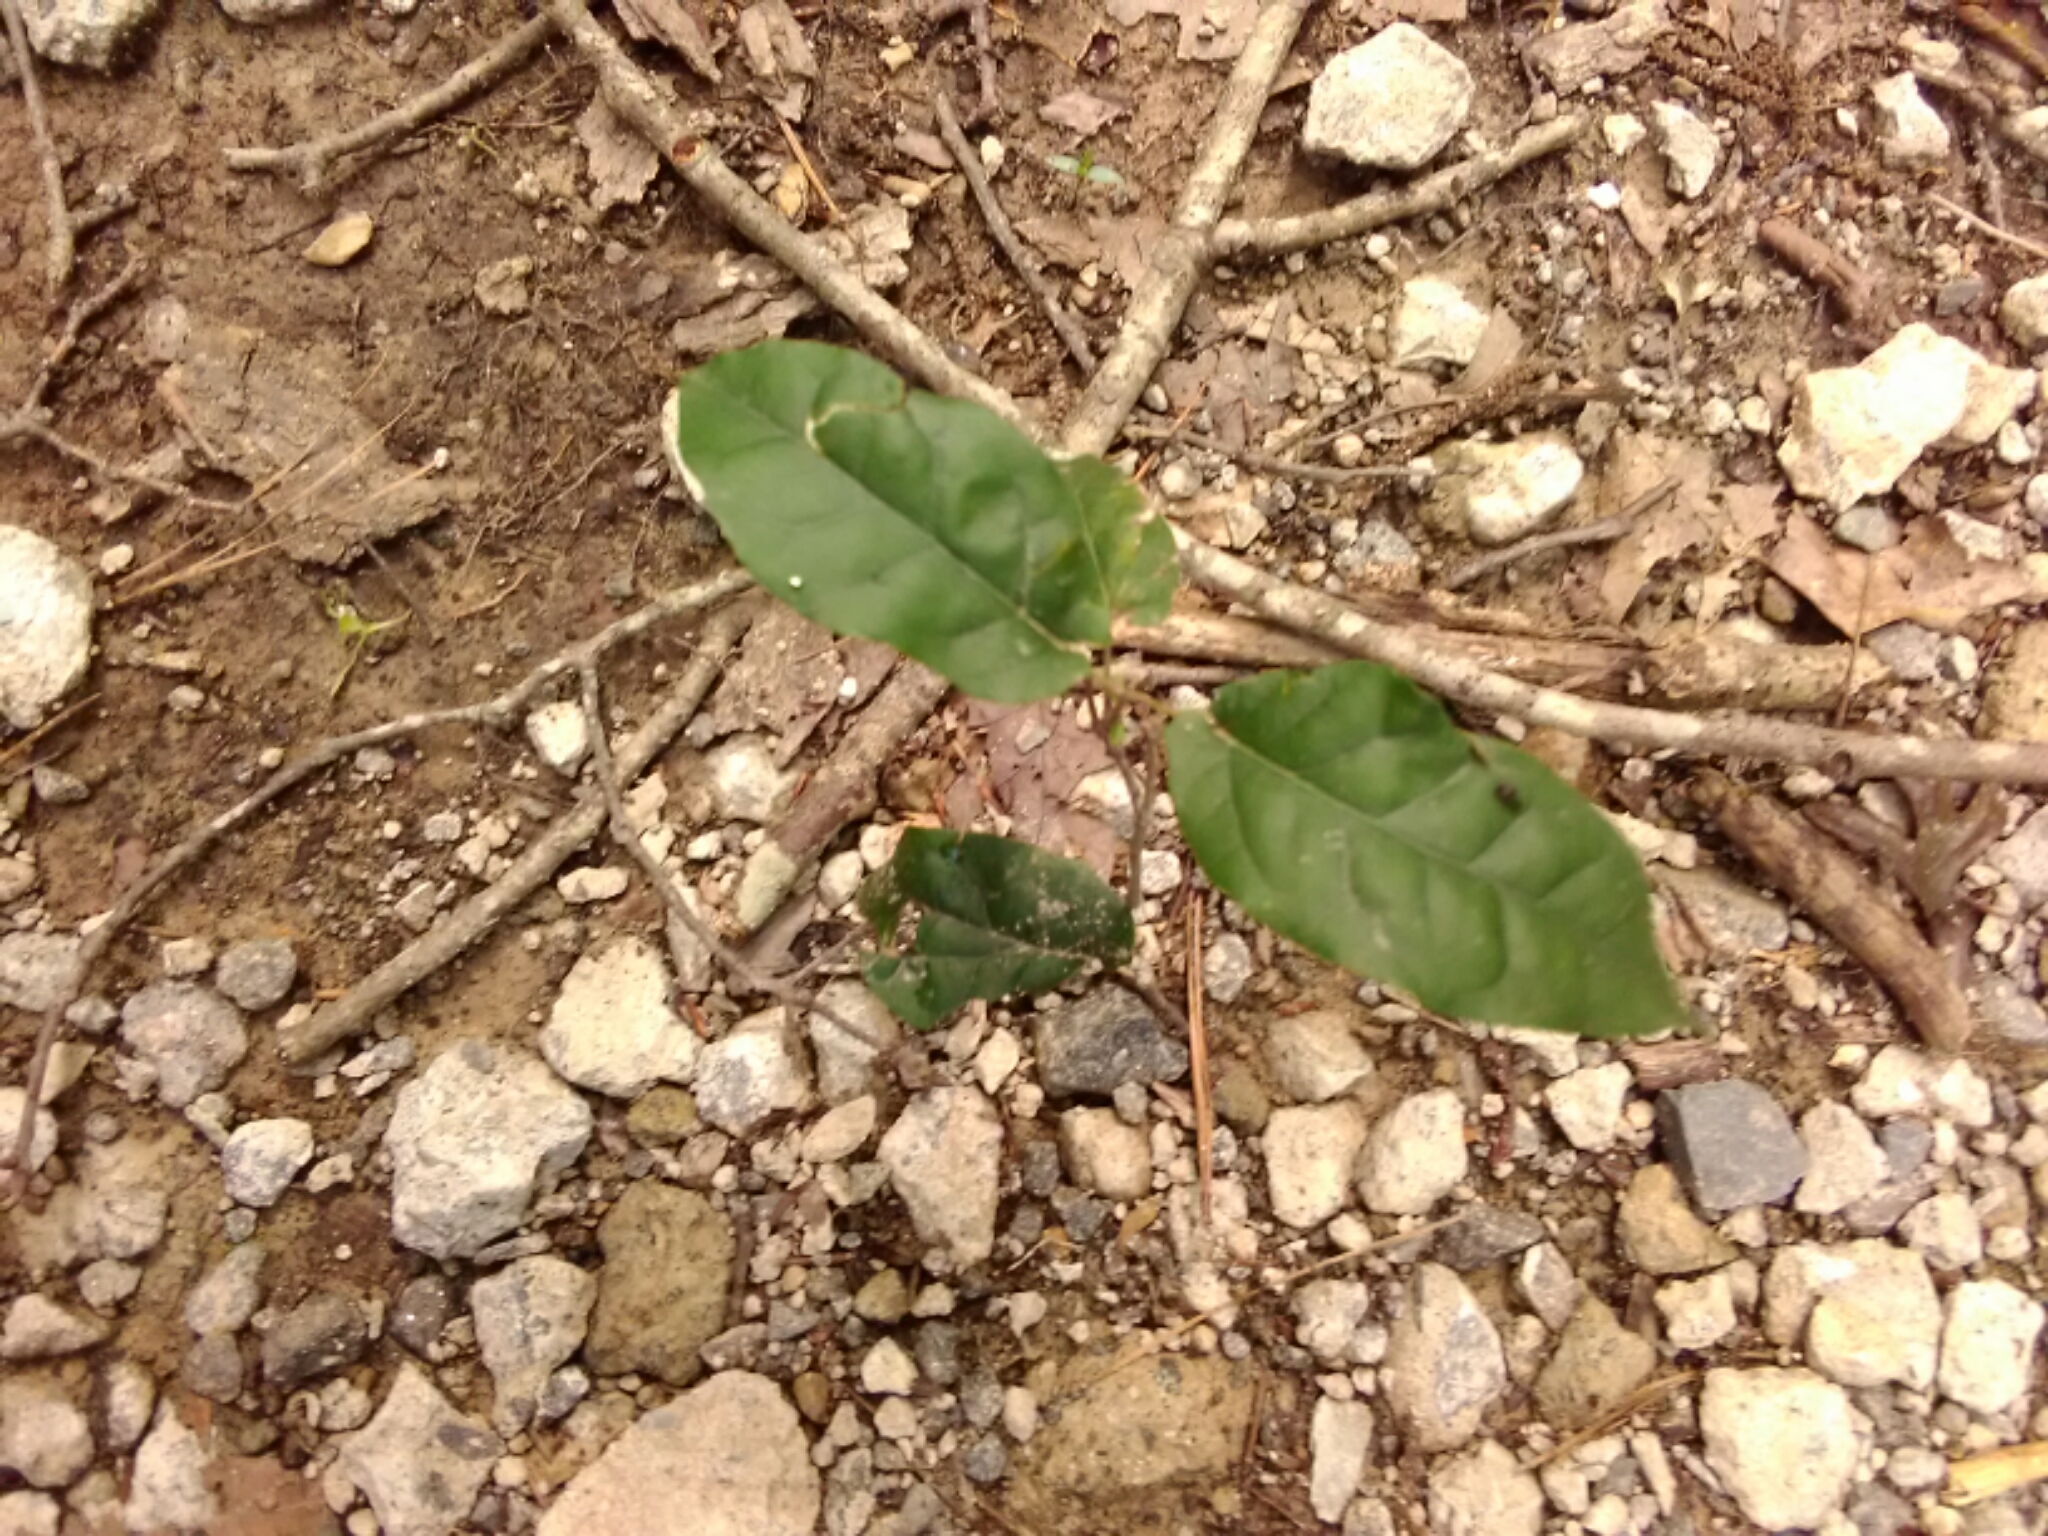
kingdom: Plantae
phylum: Tracheophyta
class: Magnoliopsida
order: Lamiales
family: Bignoniaceae
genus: Bignonia
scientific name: Bignonia capreolata
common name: Crossvine
